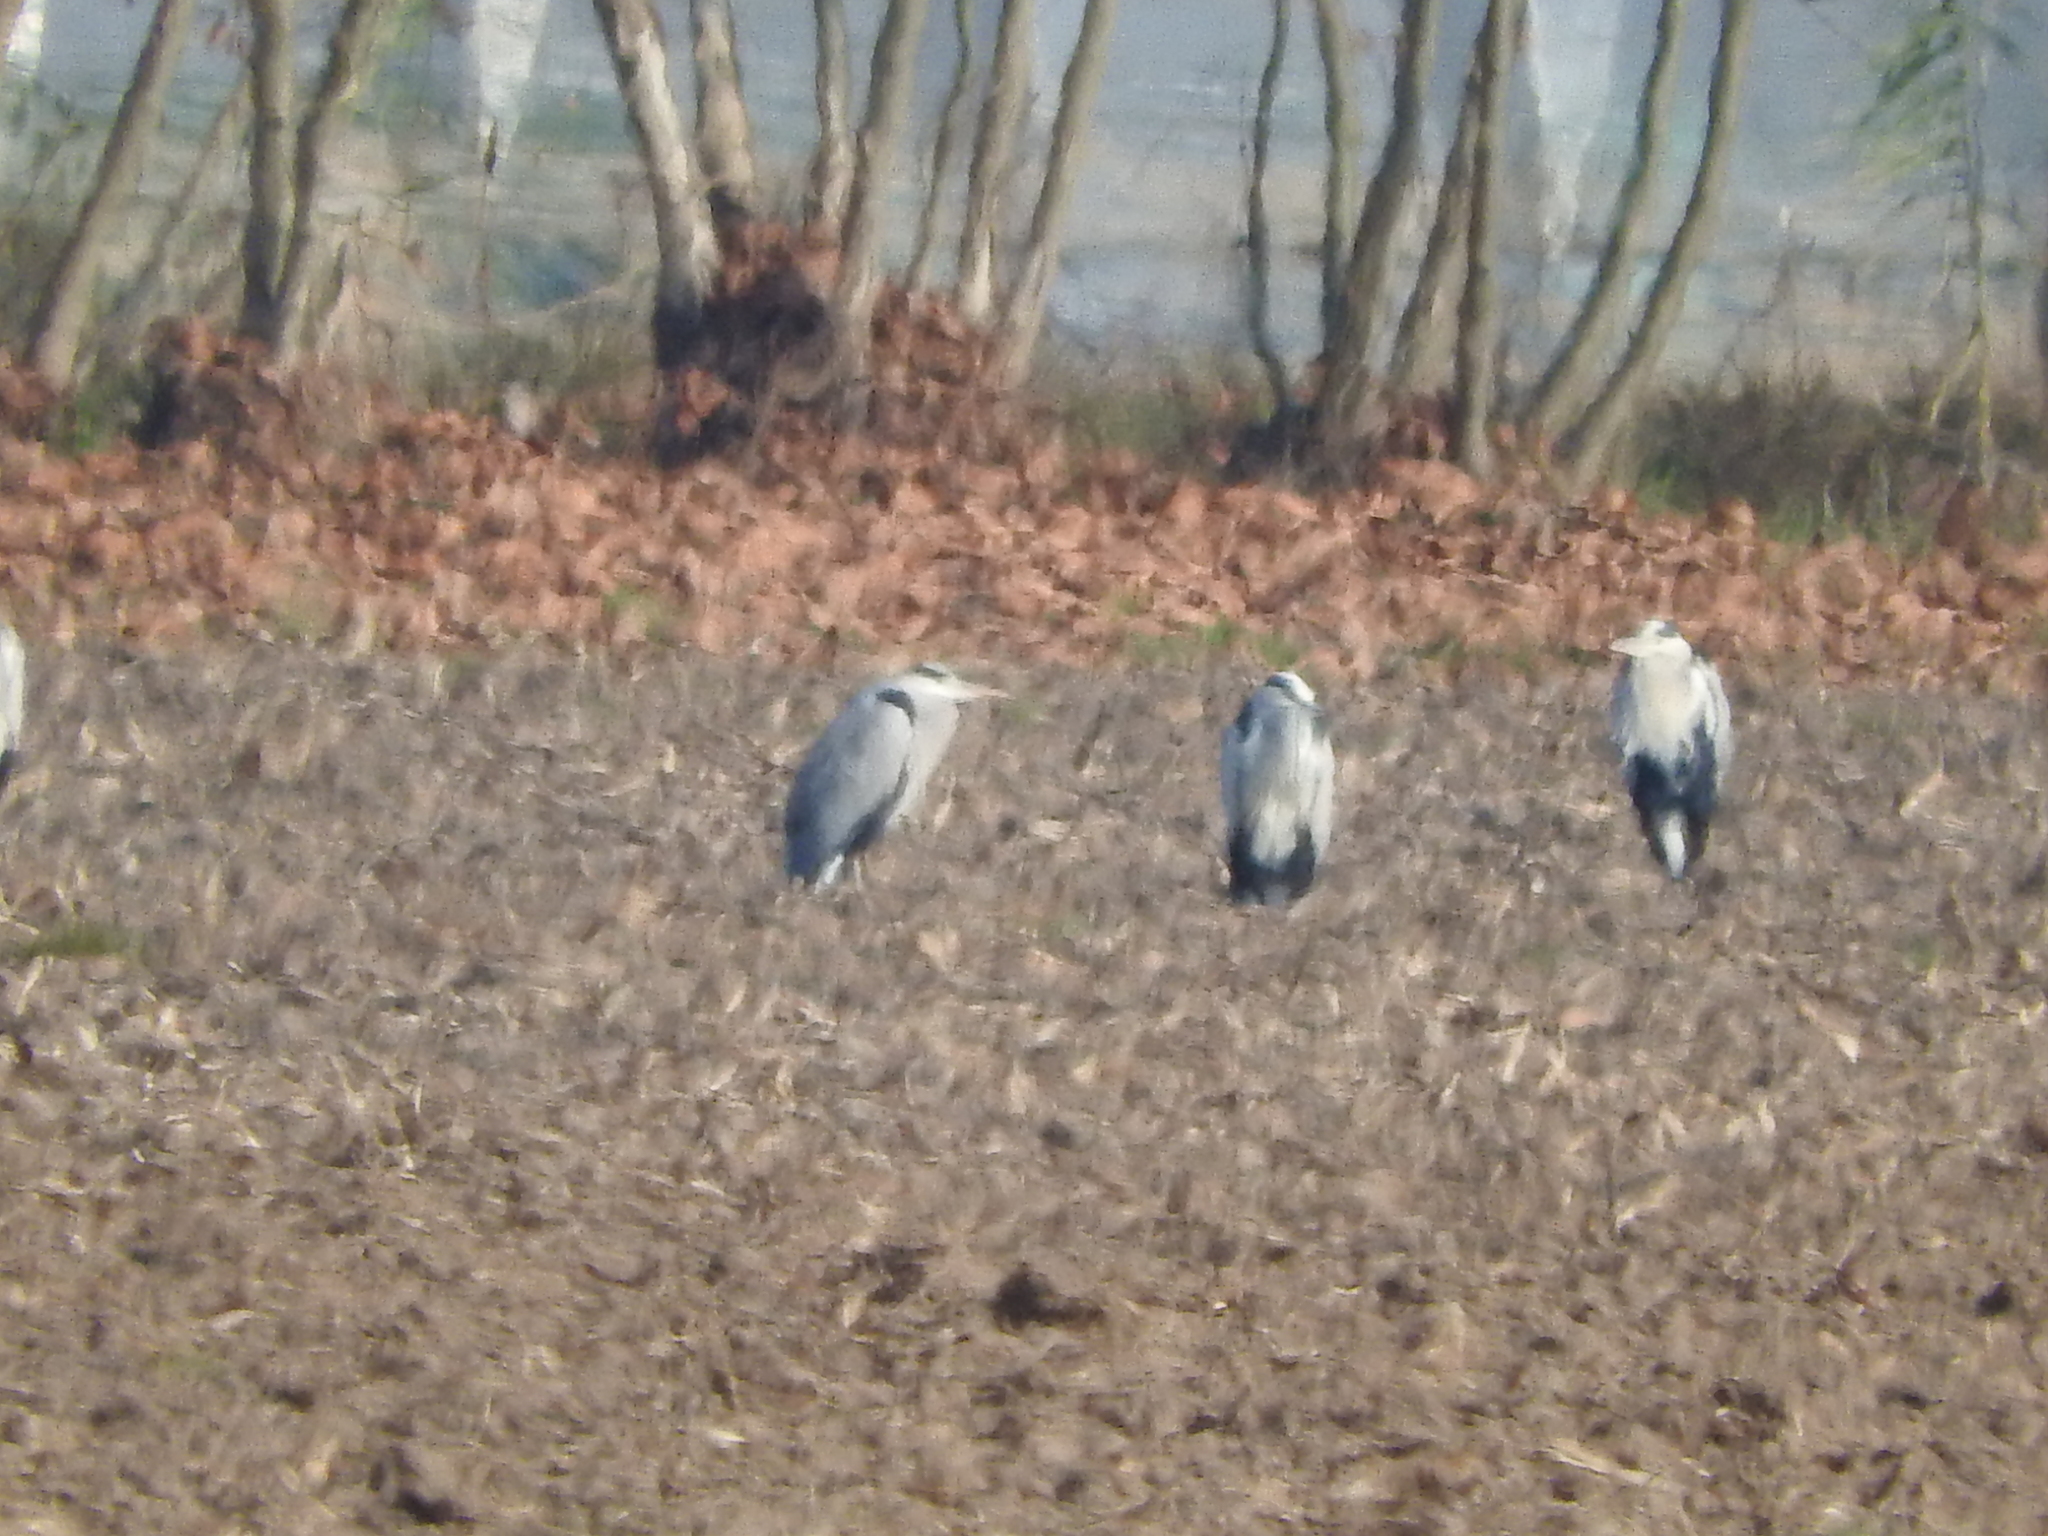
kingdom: Animalia
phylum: Chordata
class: Aves
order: Pelecaniformes
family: Ardeidae
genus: Ardea
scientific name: Ardea cinerea
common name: Grey heron
